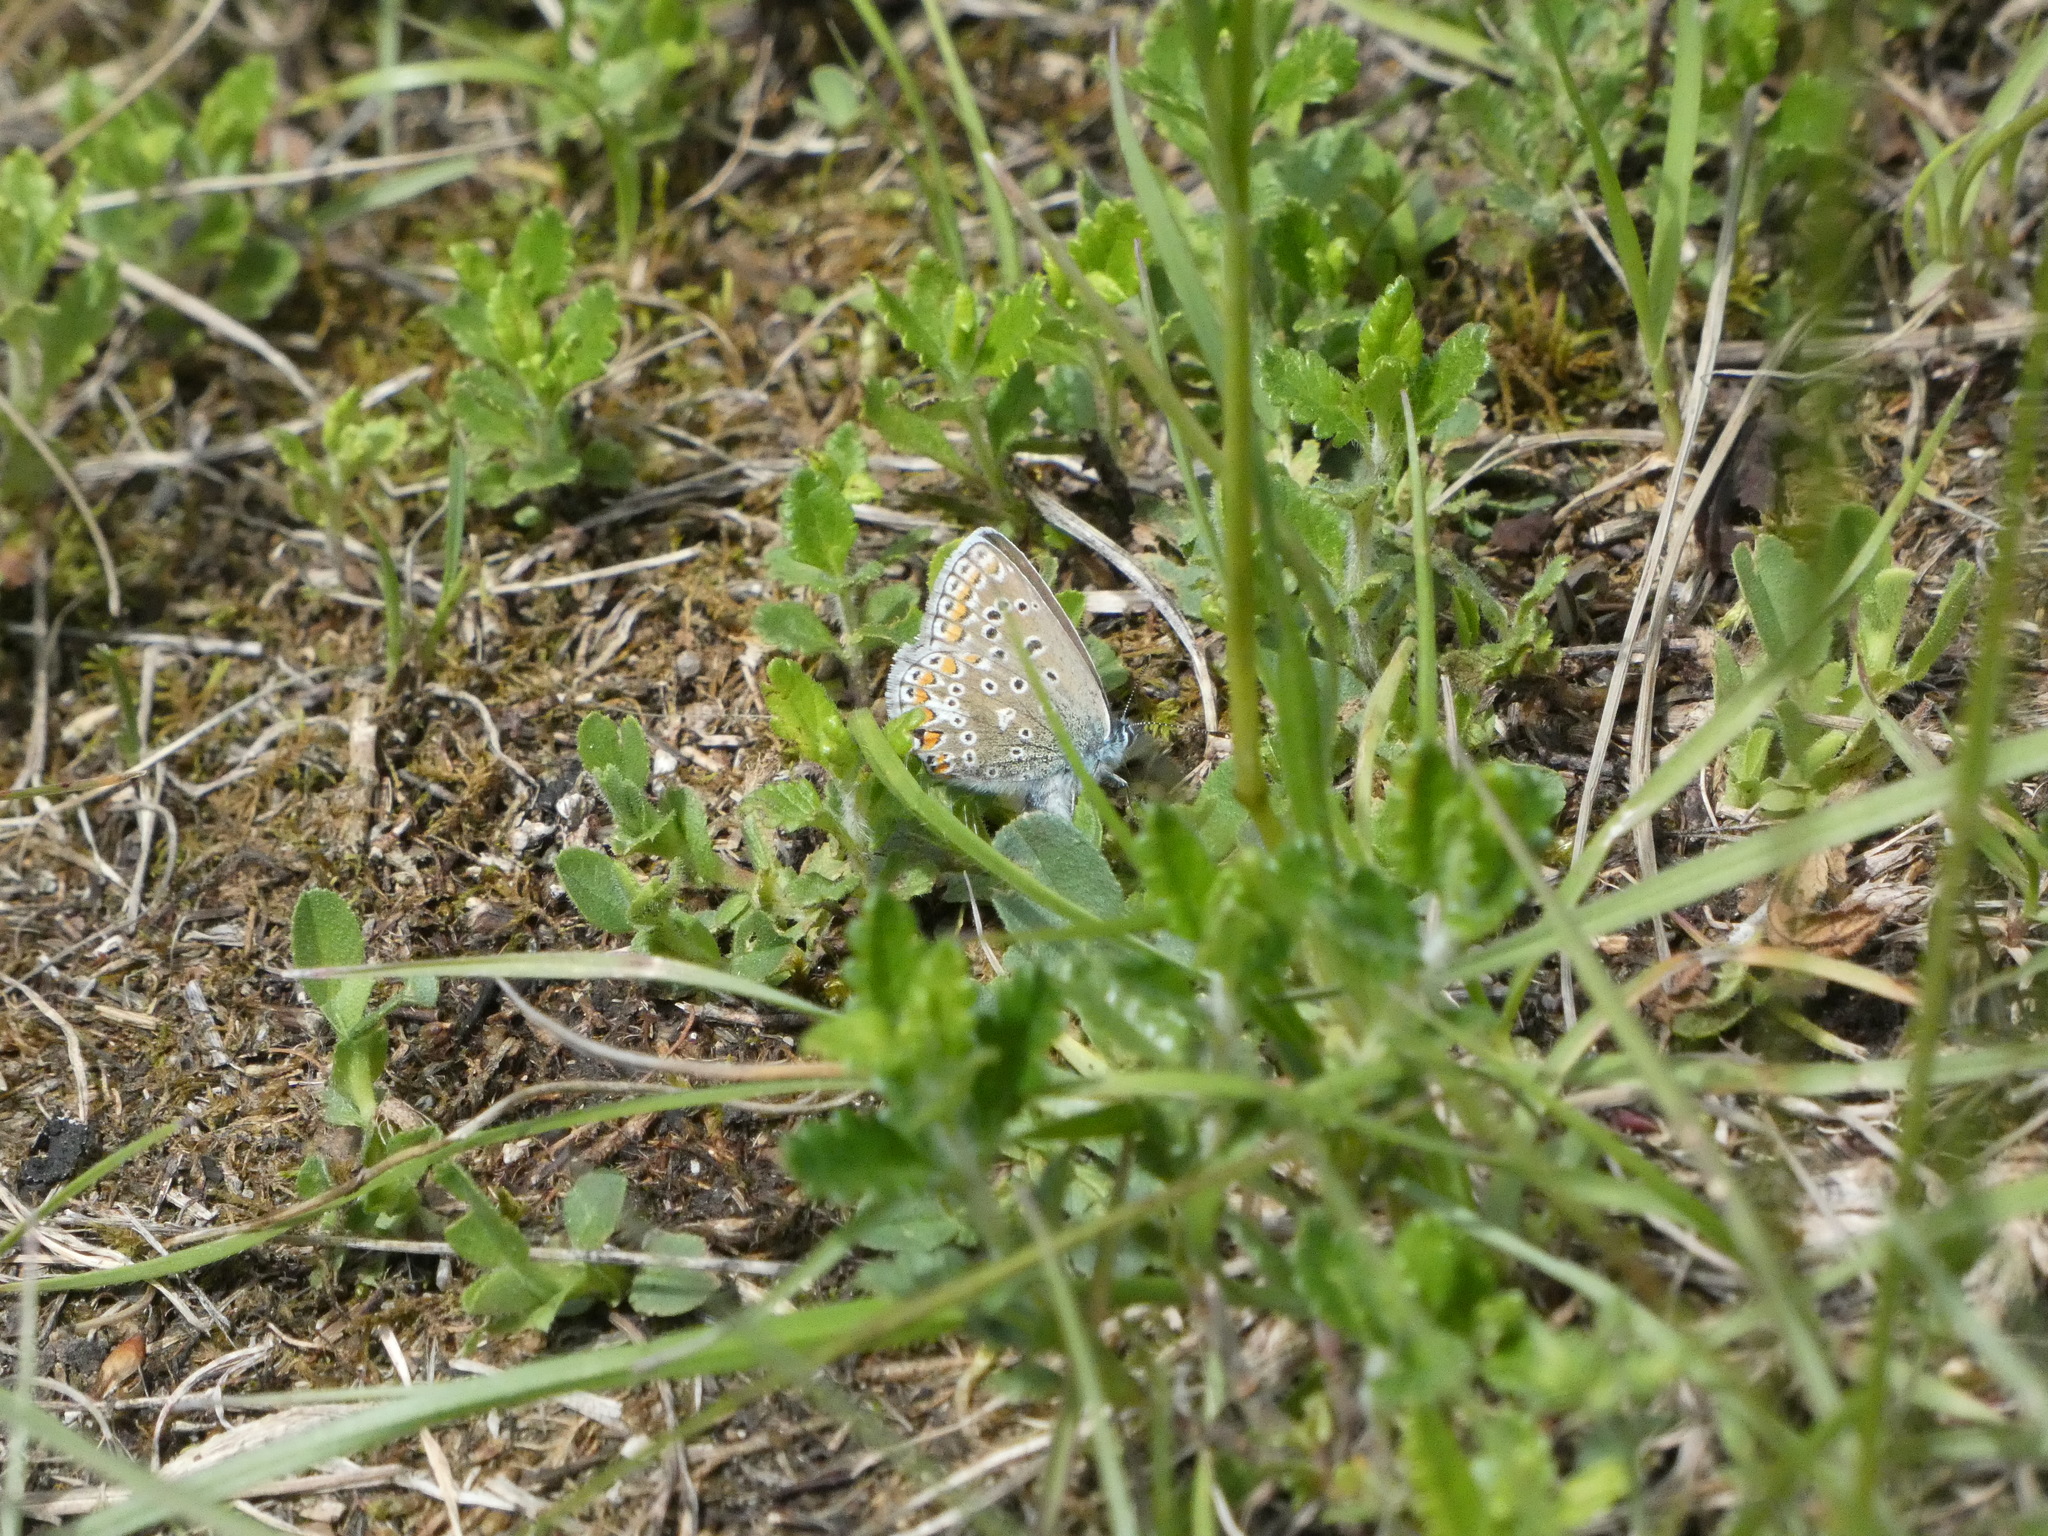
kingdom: Animalia
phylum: Arthropoda
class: Insecta
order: Lepidoptera
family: Lycaenidae
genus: Polyommatus
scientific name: Polyommatus icarus
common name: Common blue
